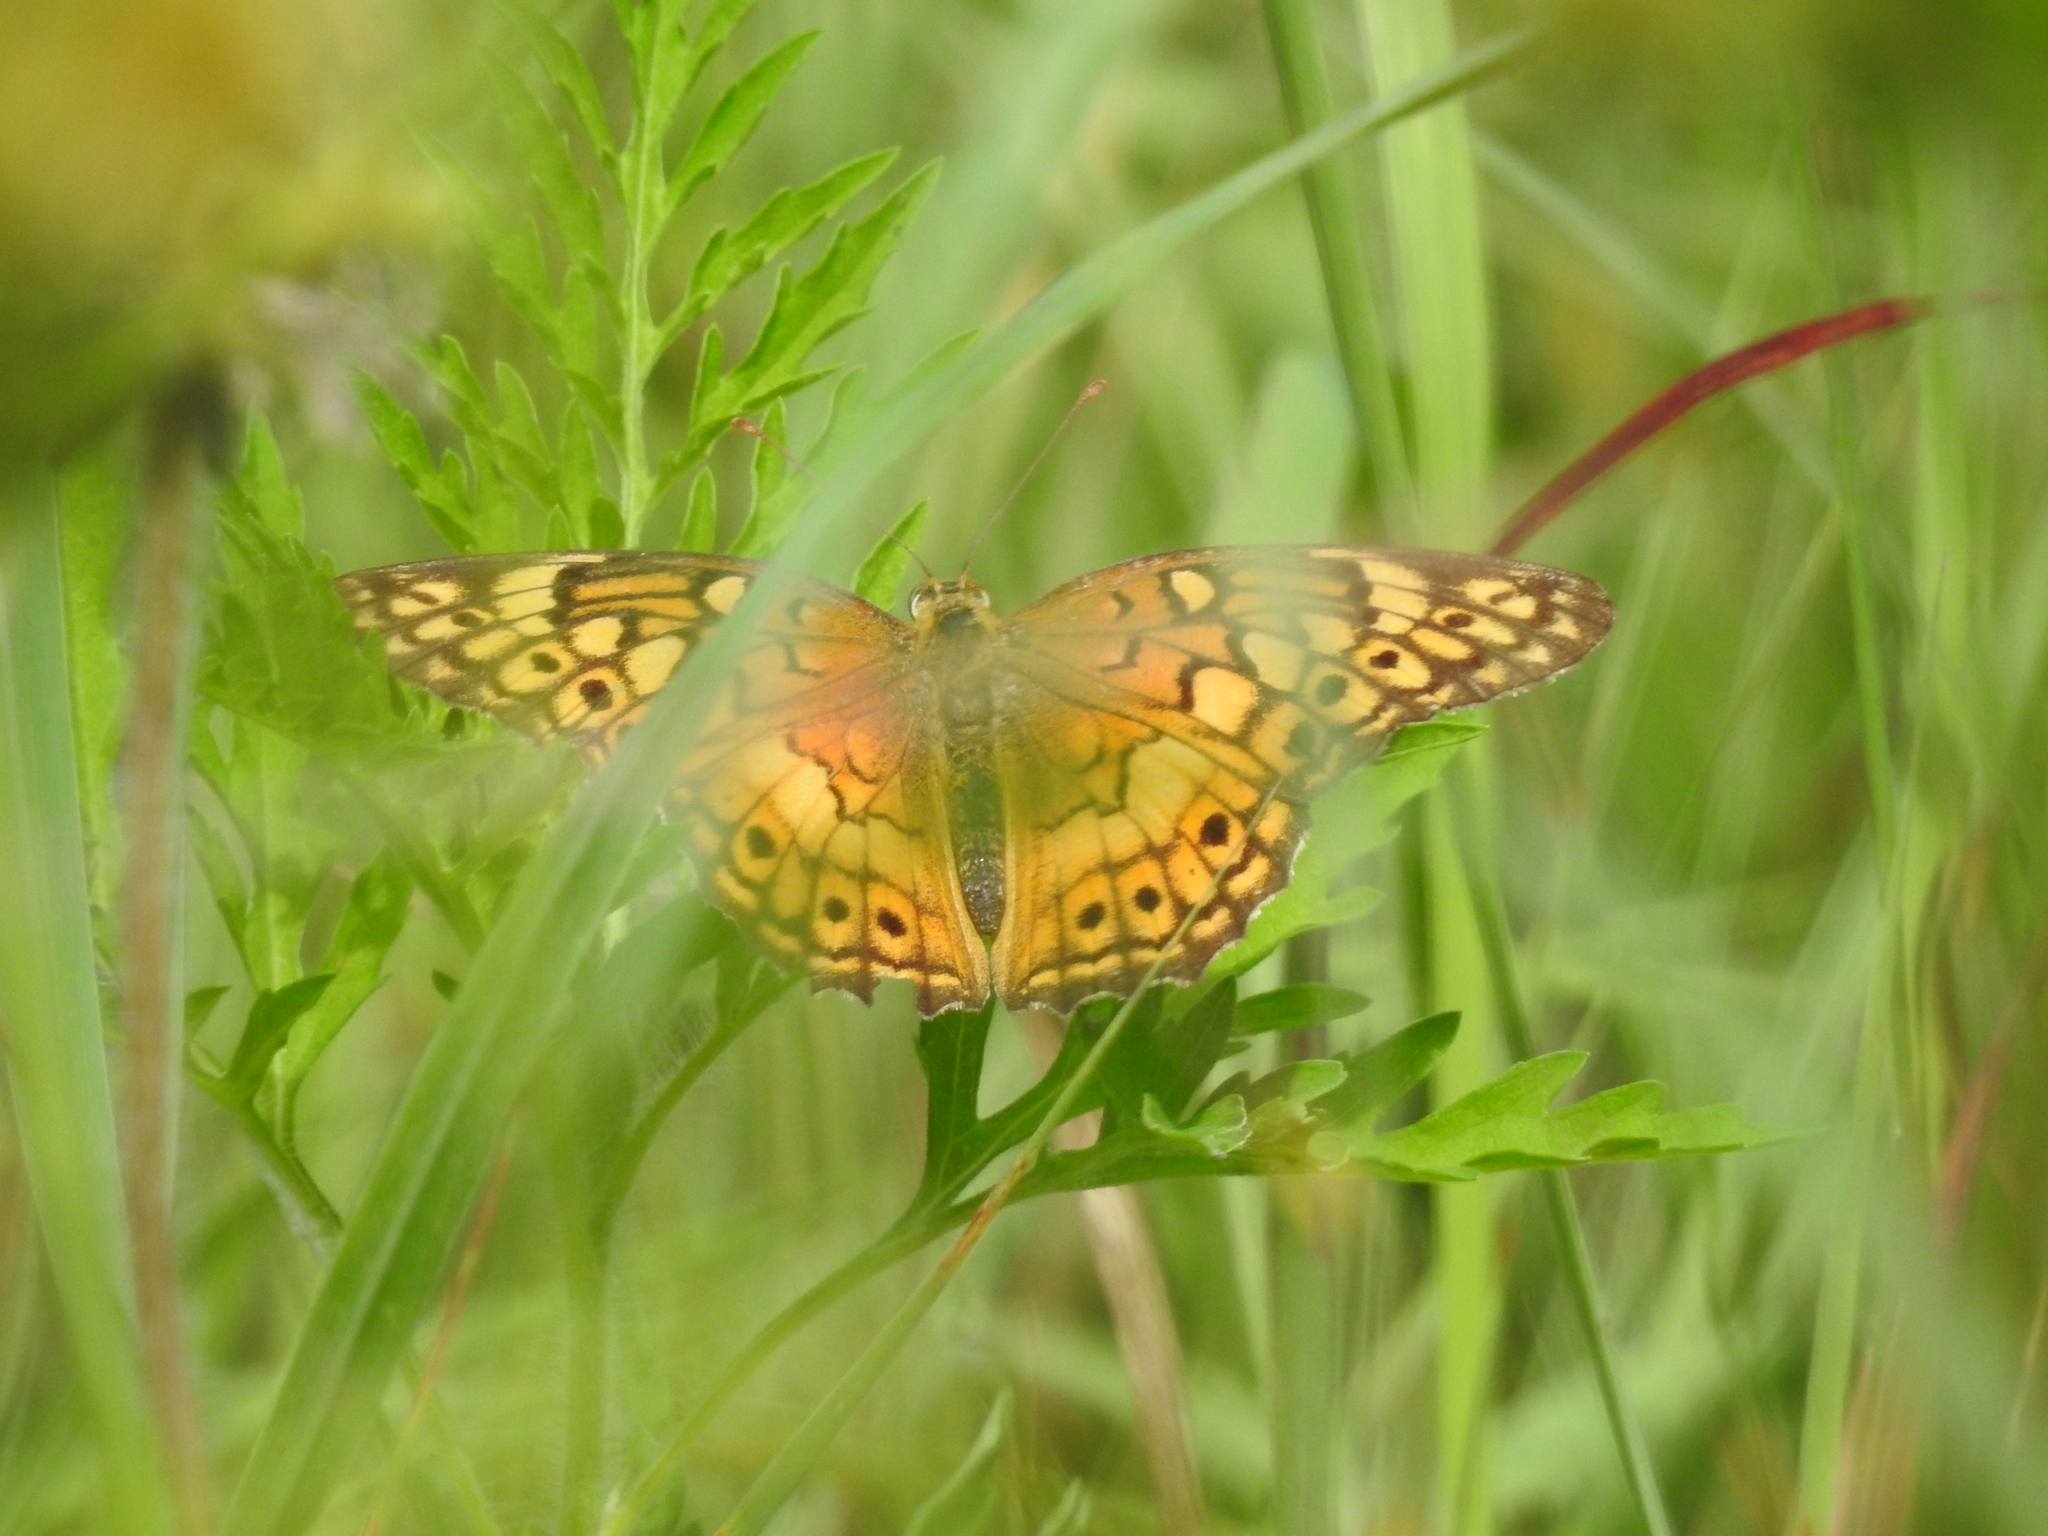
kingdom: Animalia
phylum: Arthropoda
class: Insecta
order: Lepidoptera
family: Nymphalidae
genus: Dione
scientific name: Dione vanillae
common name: Gulf fritillary
